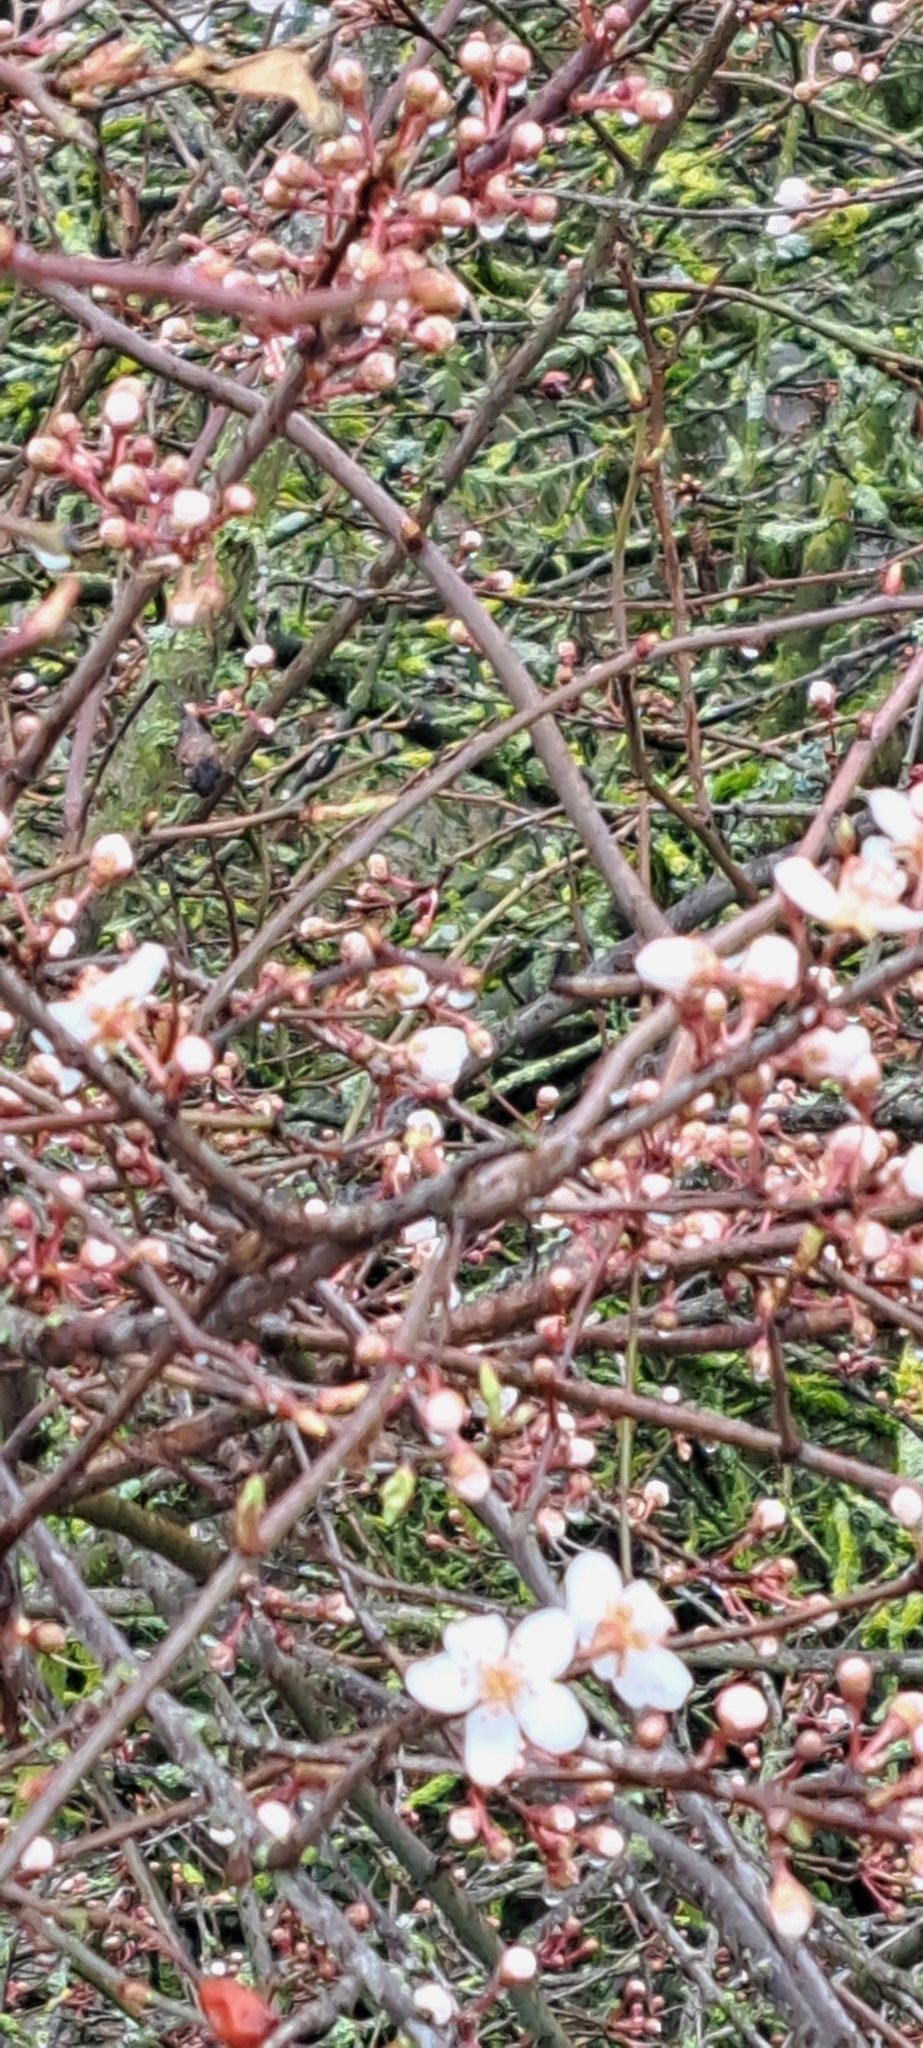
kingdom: Plantae
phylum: Tracheophyta
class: Magnoliopsida
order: Rosales
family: Rosaceae
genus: Prunus
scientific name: Prunus cerasifera
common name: Cherry plum
